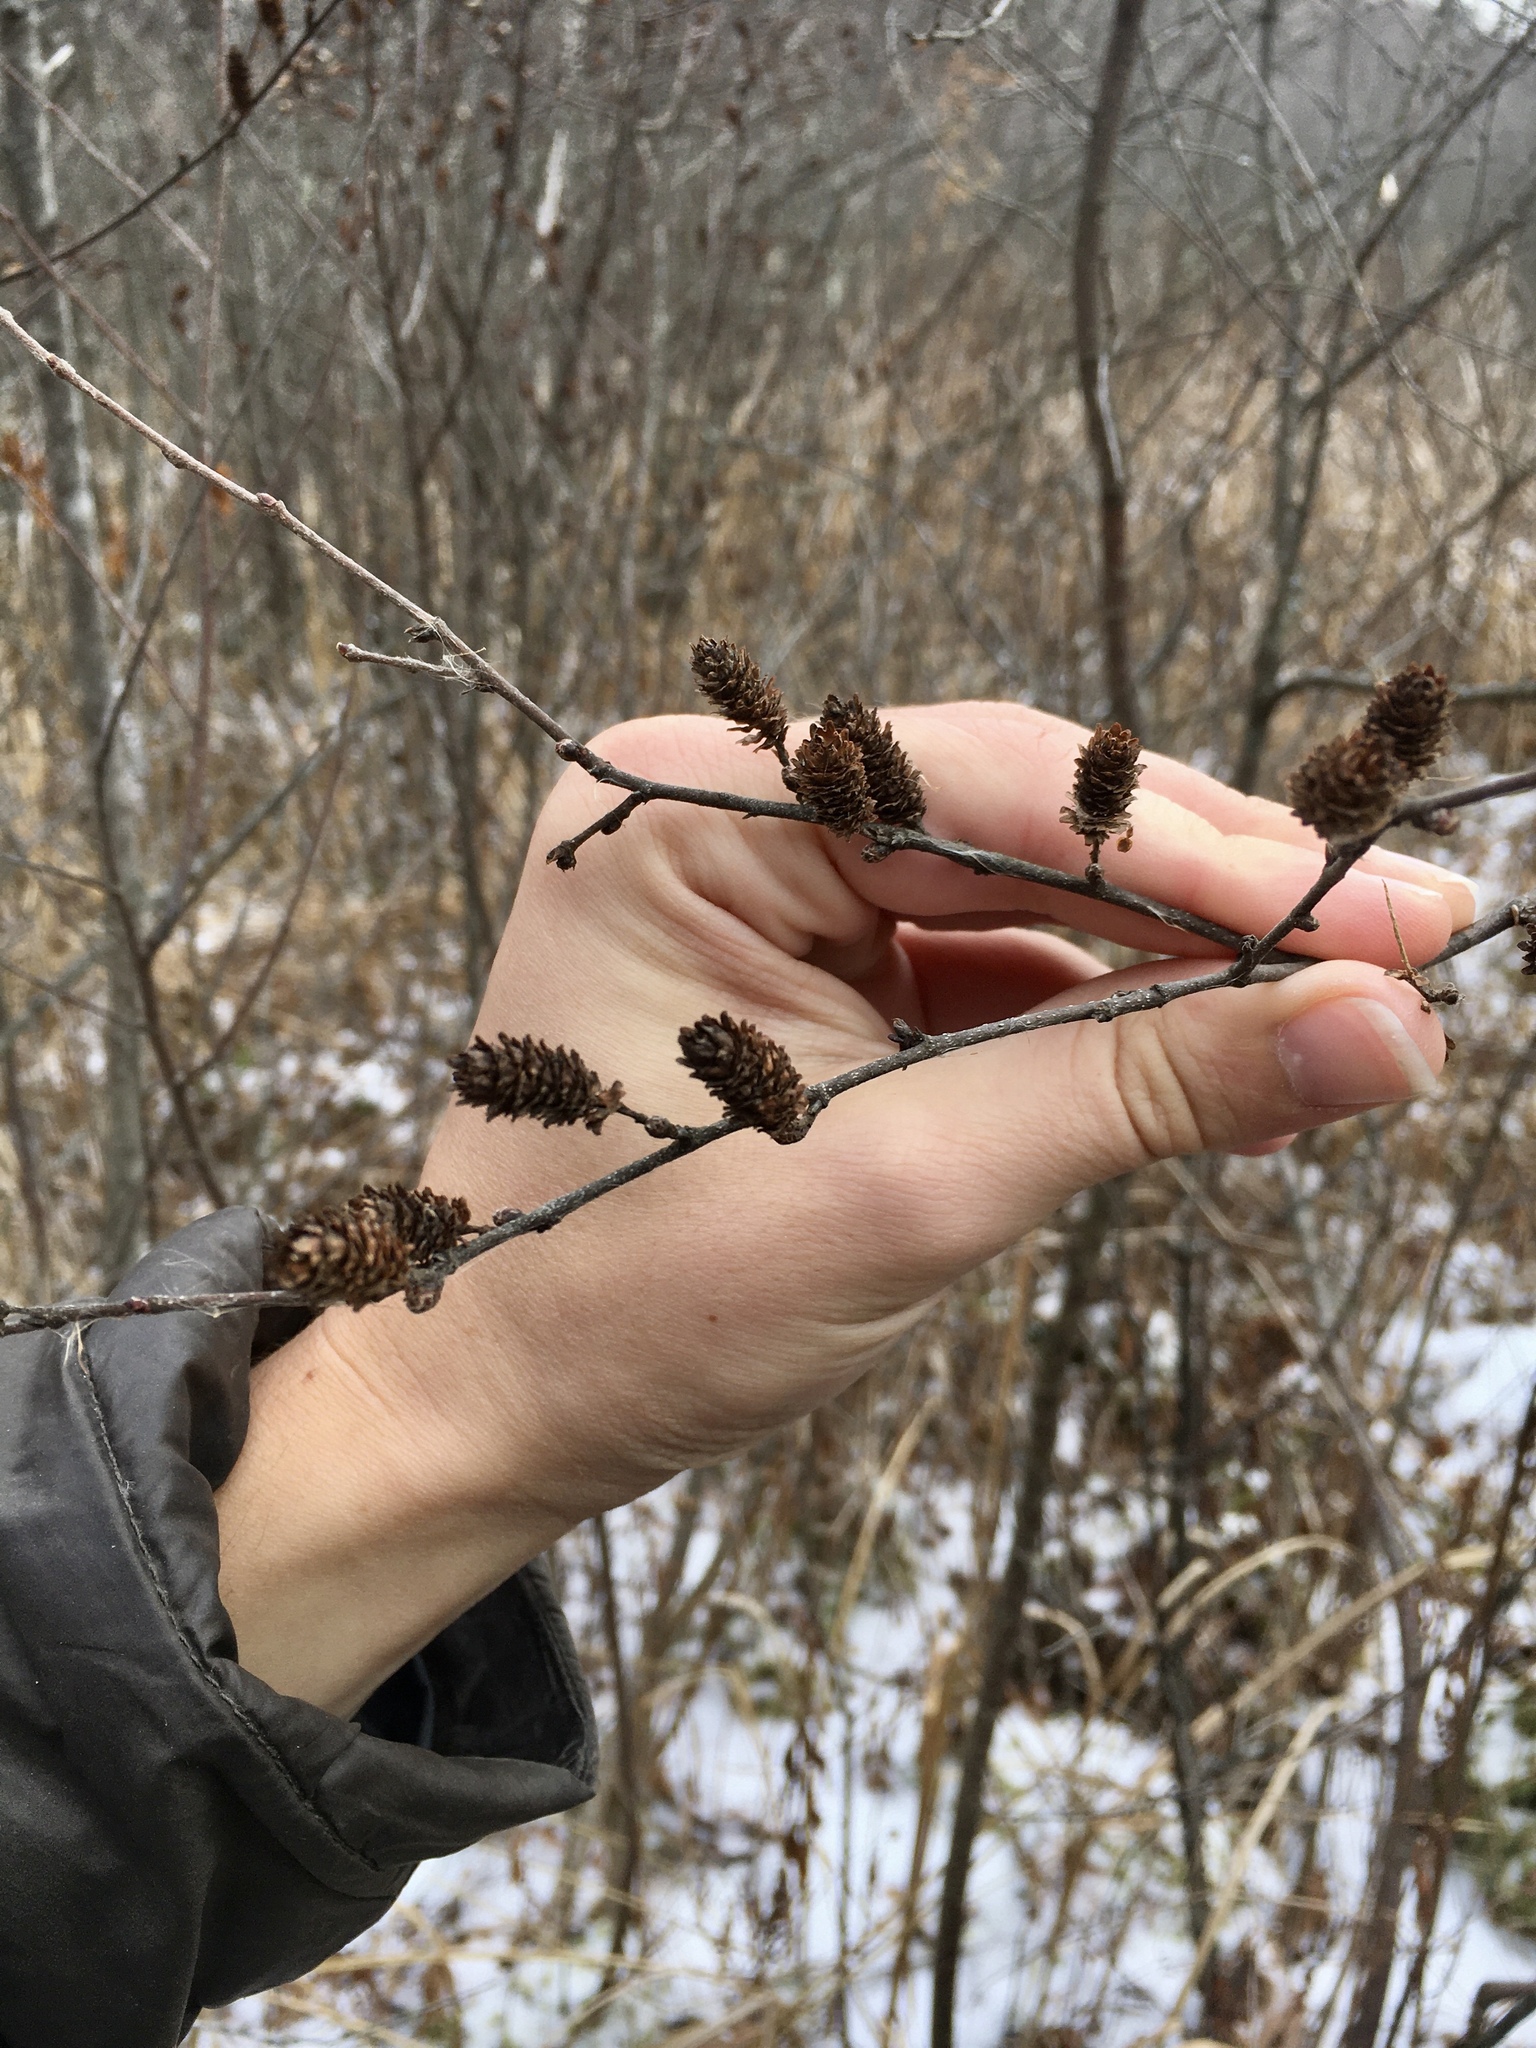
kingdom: Plantae
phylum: Tracheophyta
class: Magnoliopsida
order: Fagales
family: Betulaceae
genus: Betula
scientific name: Betula pumila
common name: Bog birch
